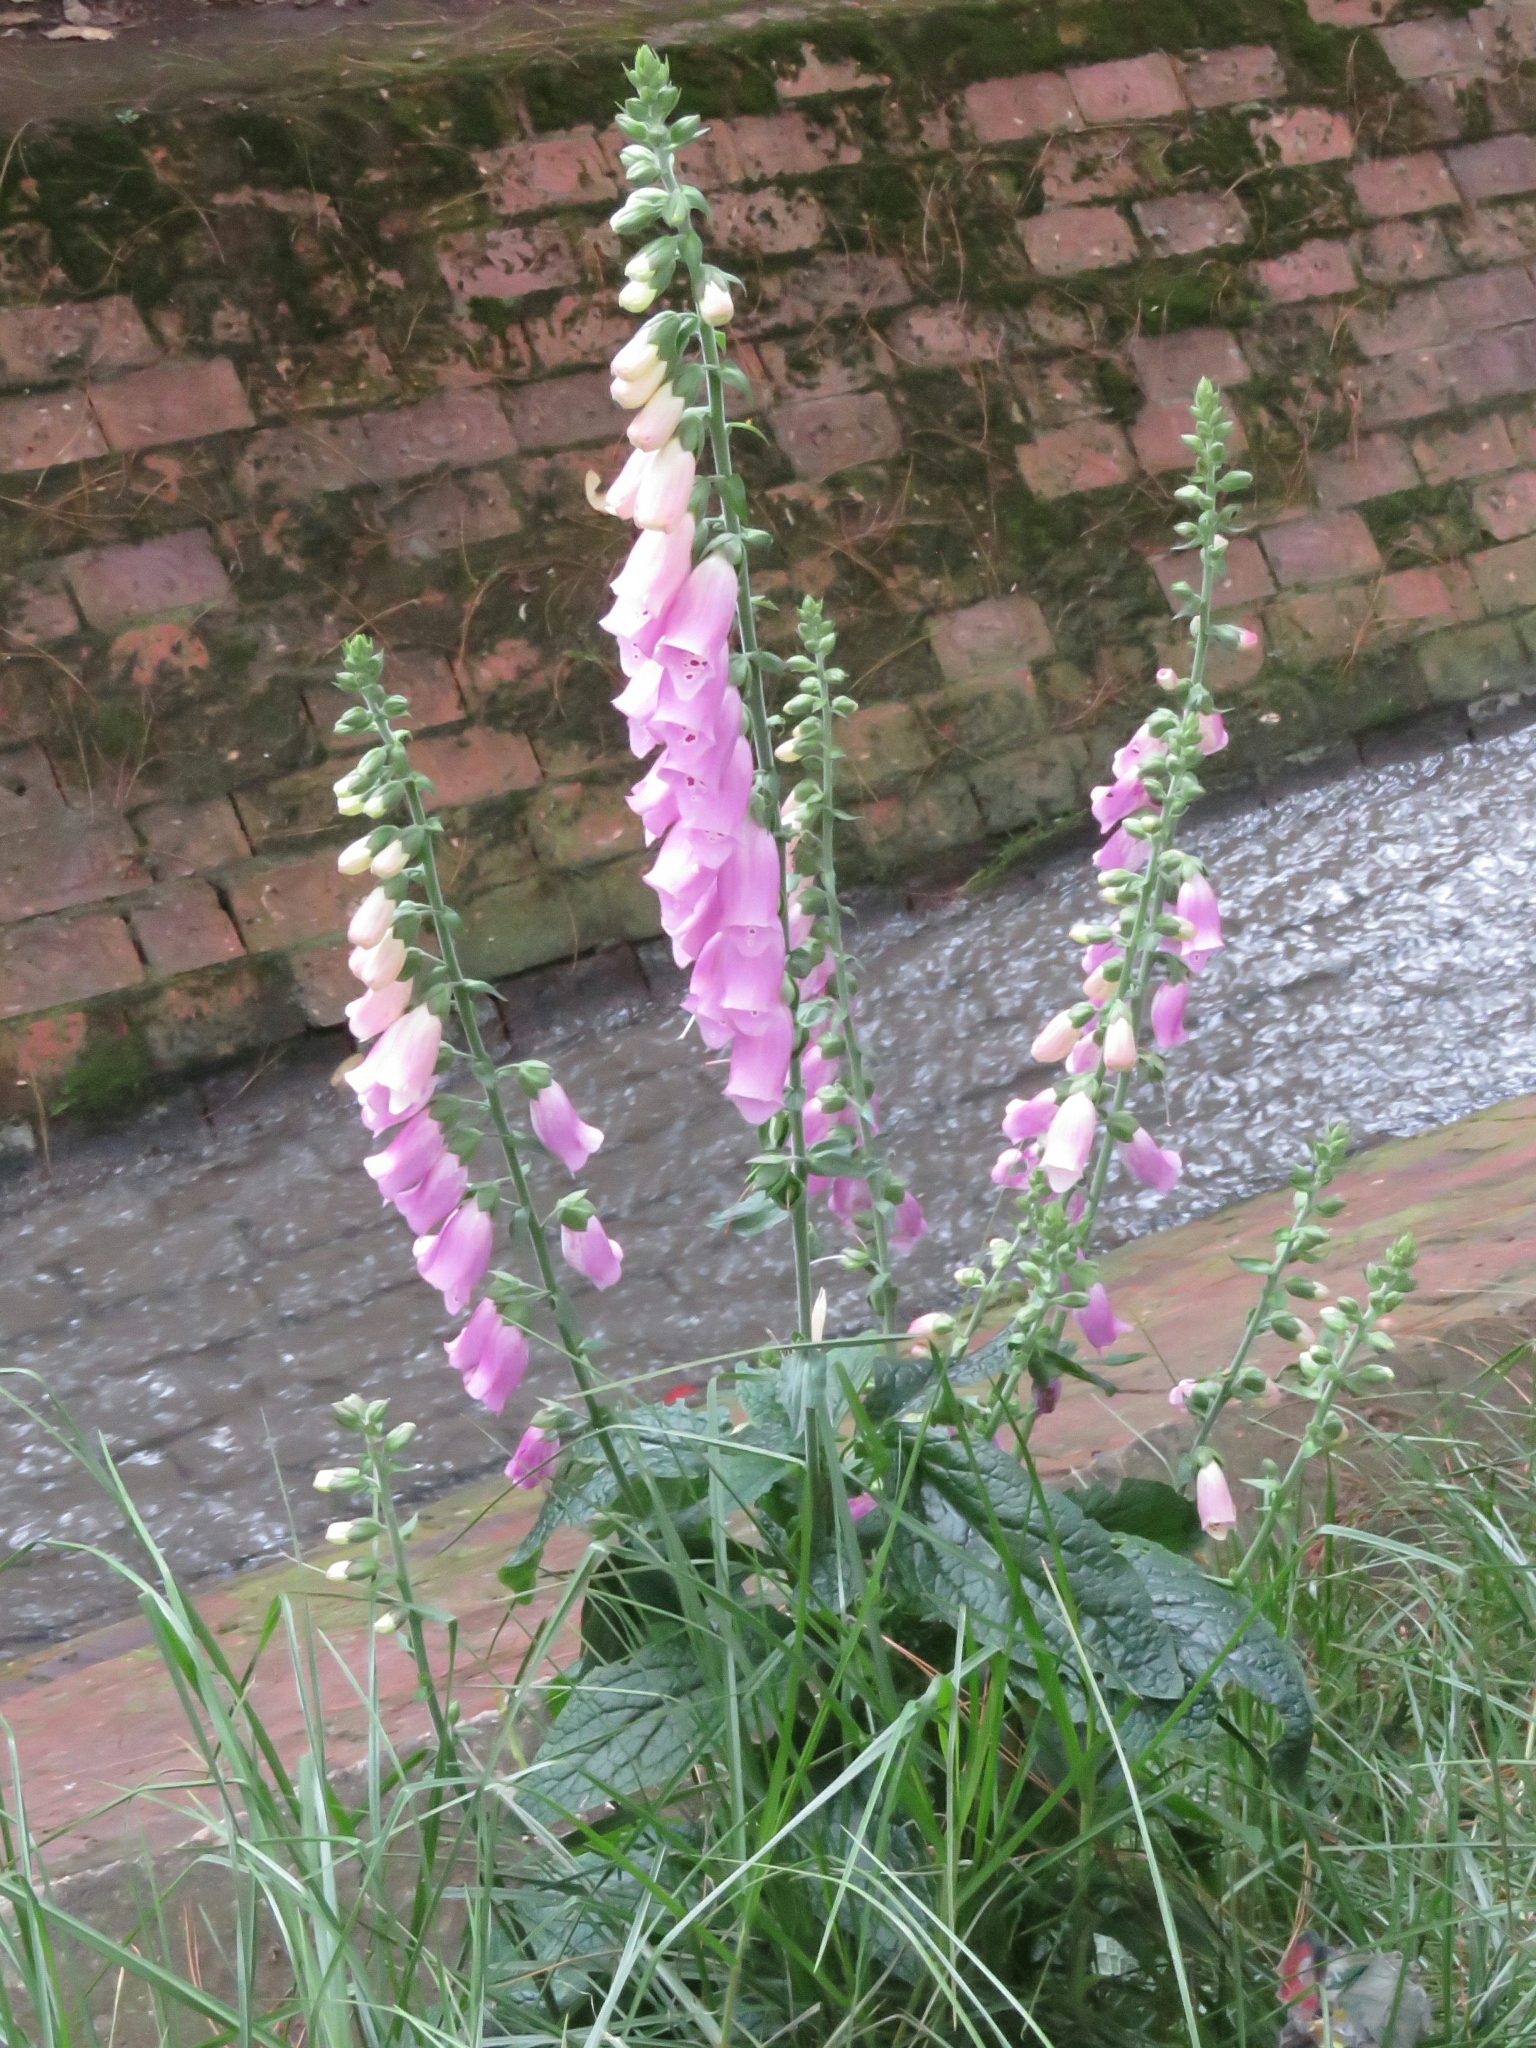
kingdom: Plantae
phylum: Tracheophyta
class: Magnoliopsida
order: Lamiales
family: Plantaginaceae
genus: Digitalis
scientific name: Digitalis purpurea
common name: Foxglove
